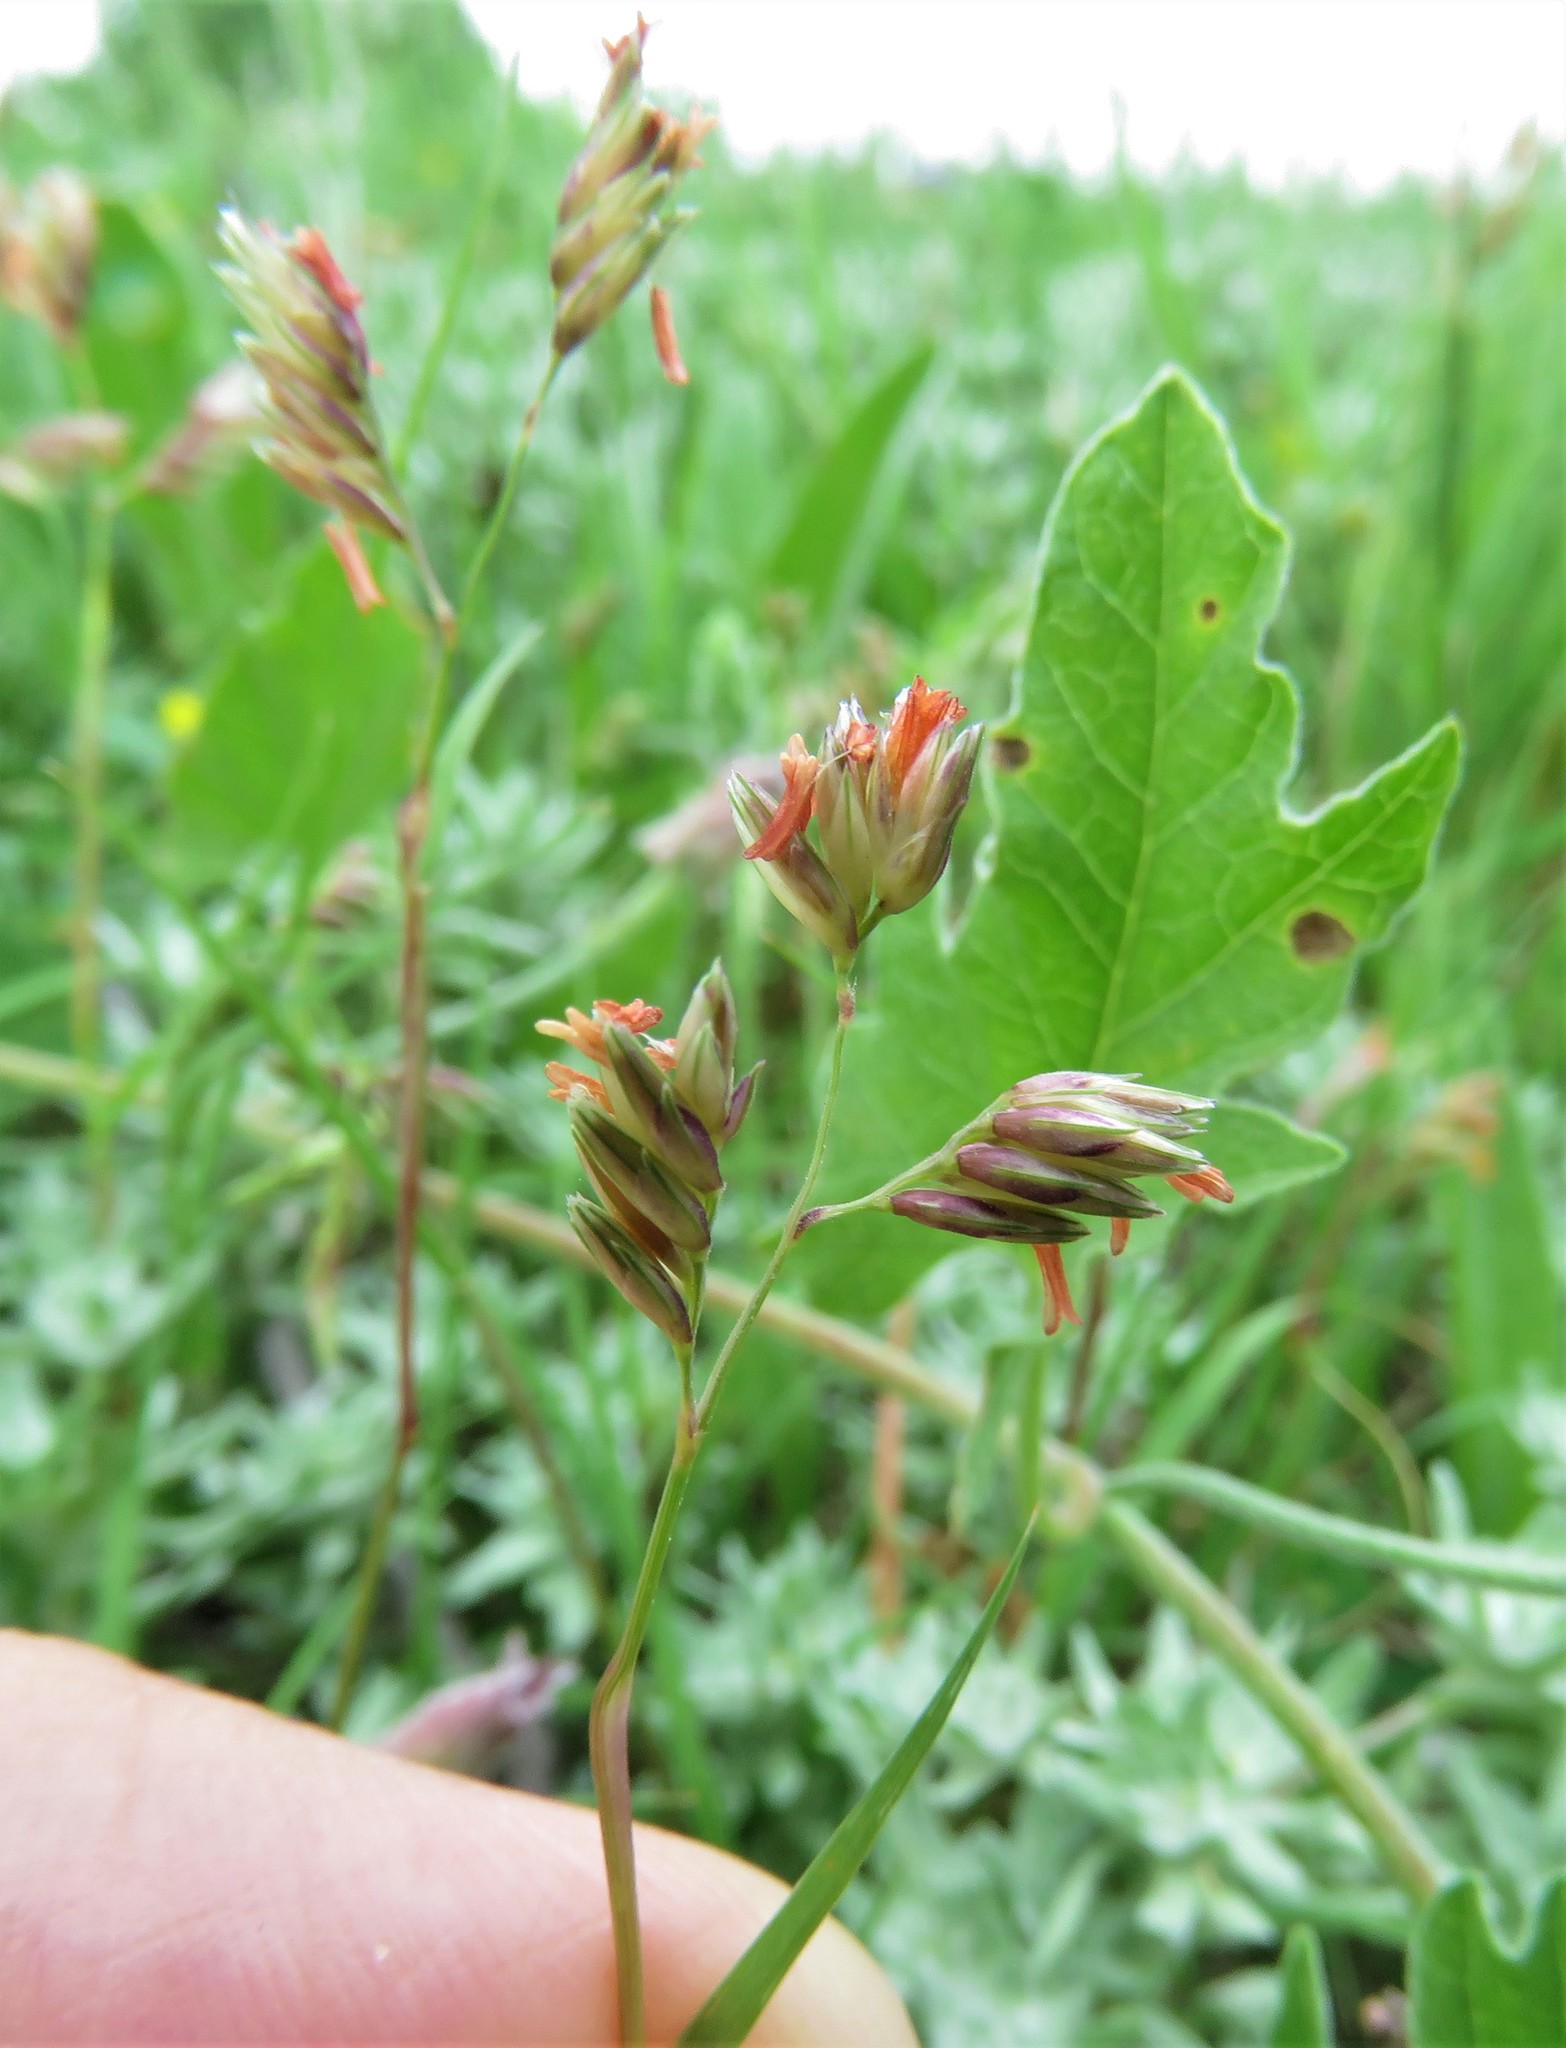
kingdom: Plantae
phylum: Tracheophyta
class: Liliopsida
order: Poales
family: Poaceae
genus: Bouteloua
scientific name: Bouteloua dactyloides
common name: Buffalo grass
